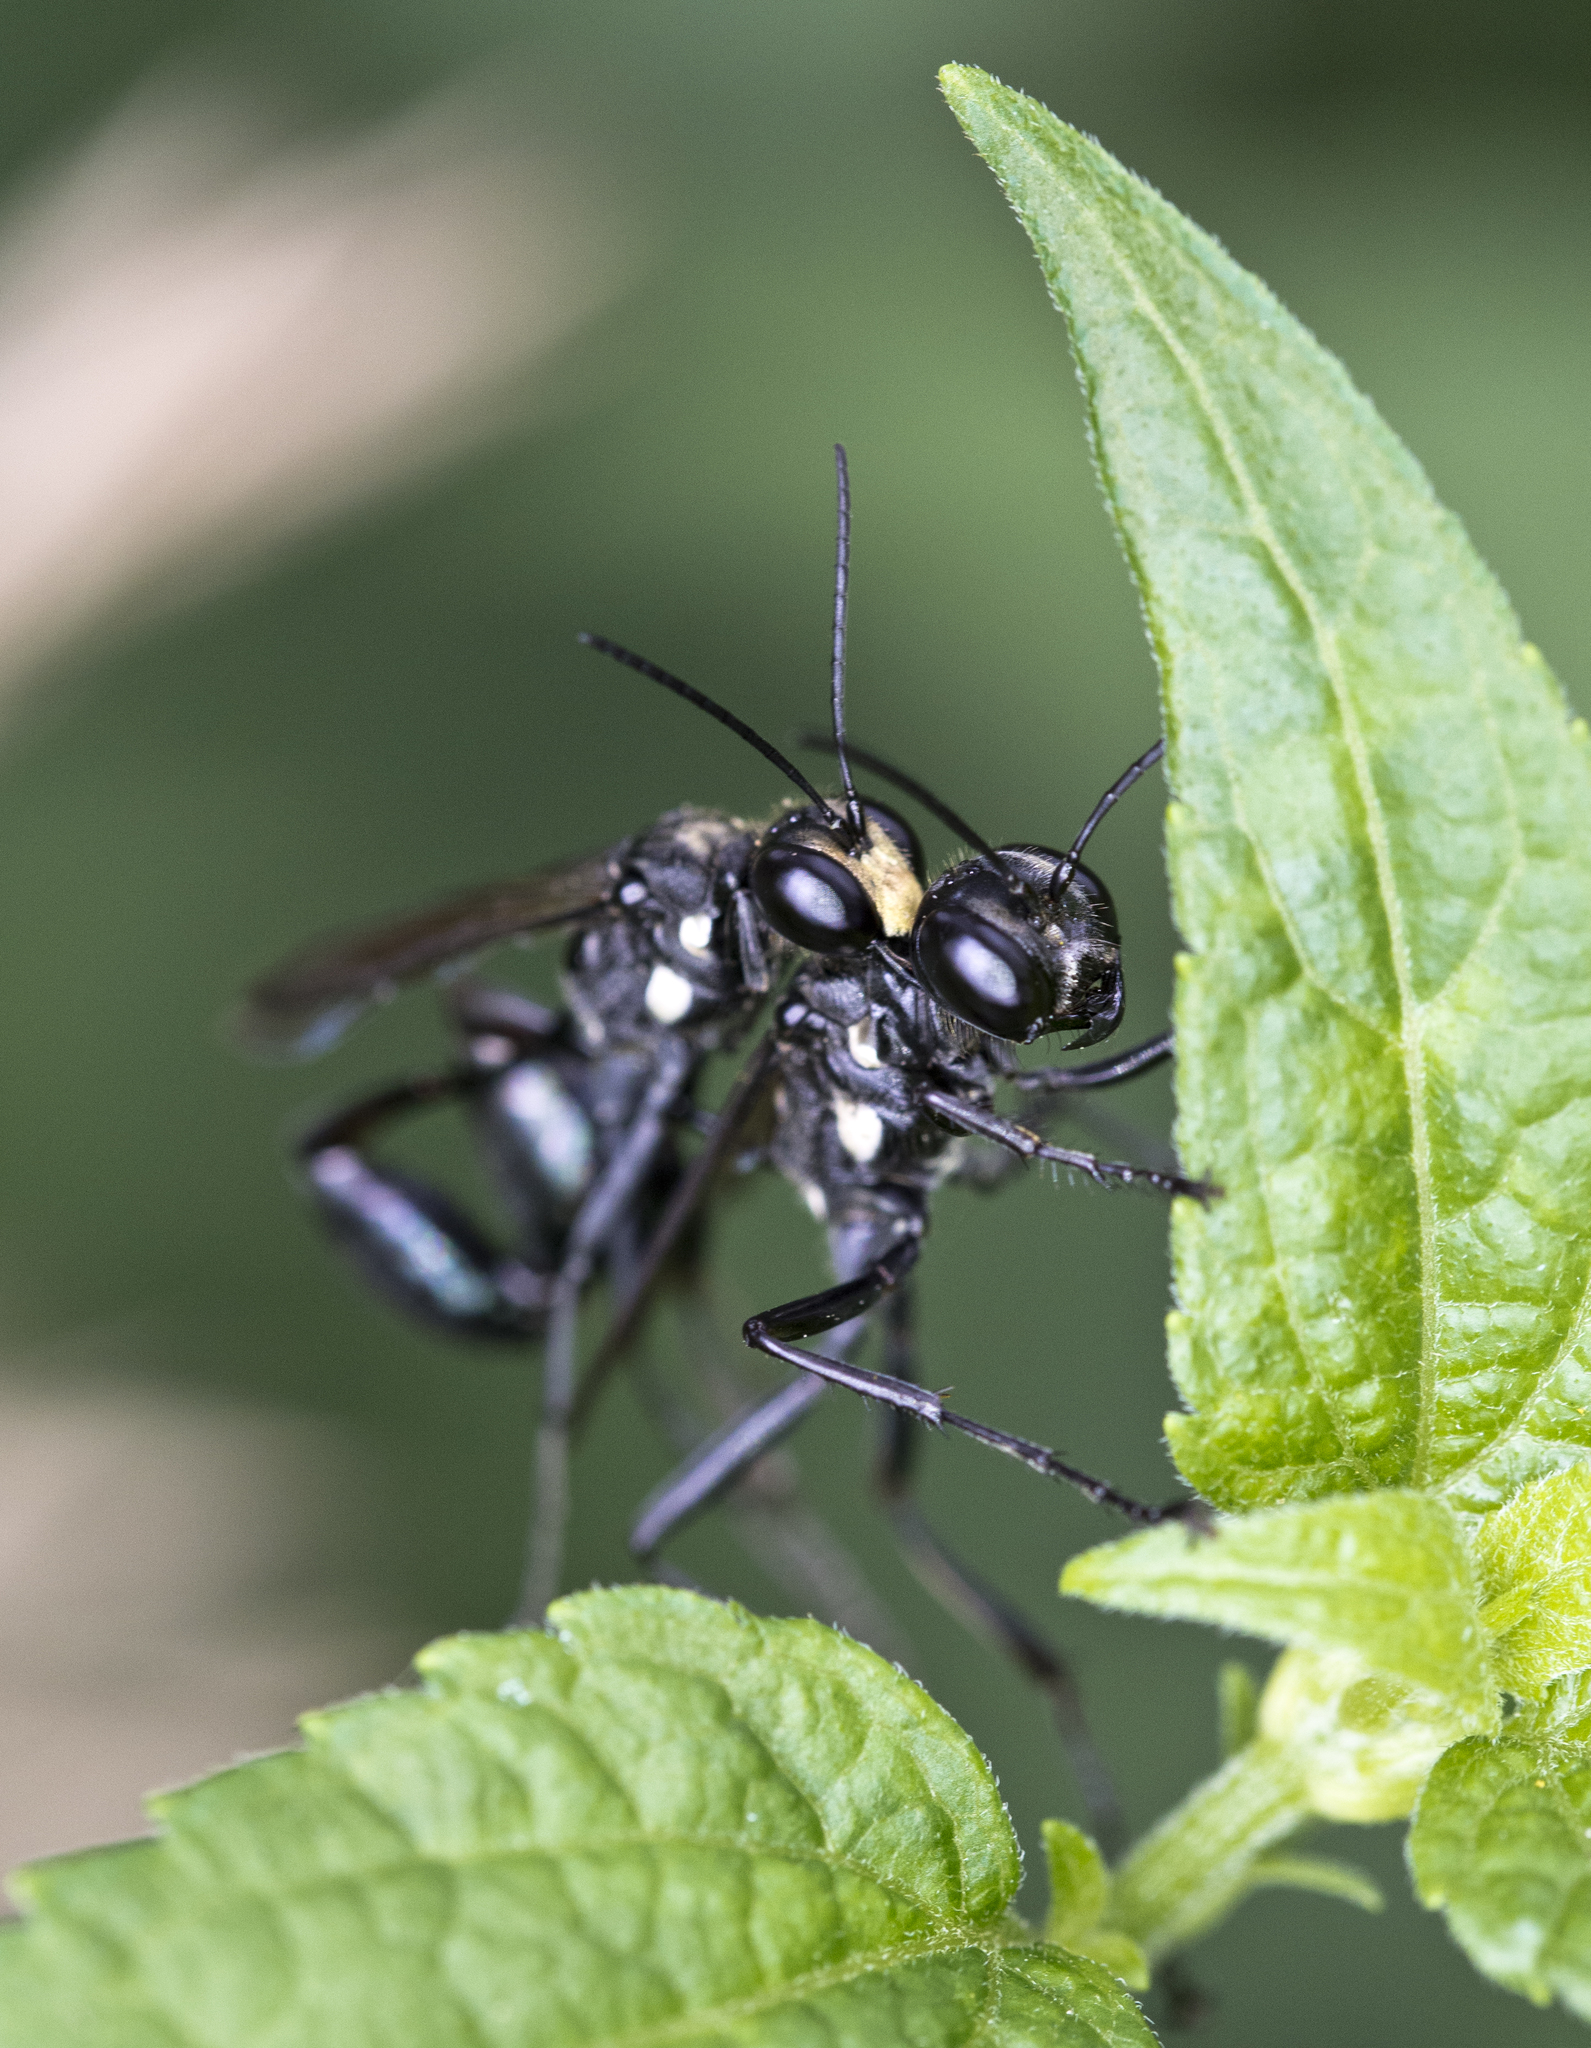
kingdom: Animalia
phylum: Arthropoda
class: Insecta
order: Hymenoptera
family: Sphecidae
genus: Eremnophila
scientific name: Eremnophila aureonotata
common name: Gold-marked thread-waisted wasp
